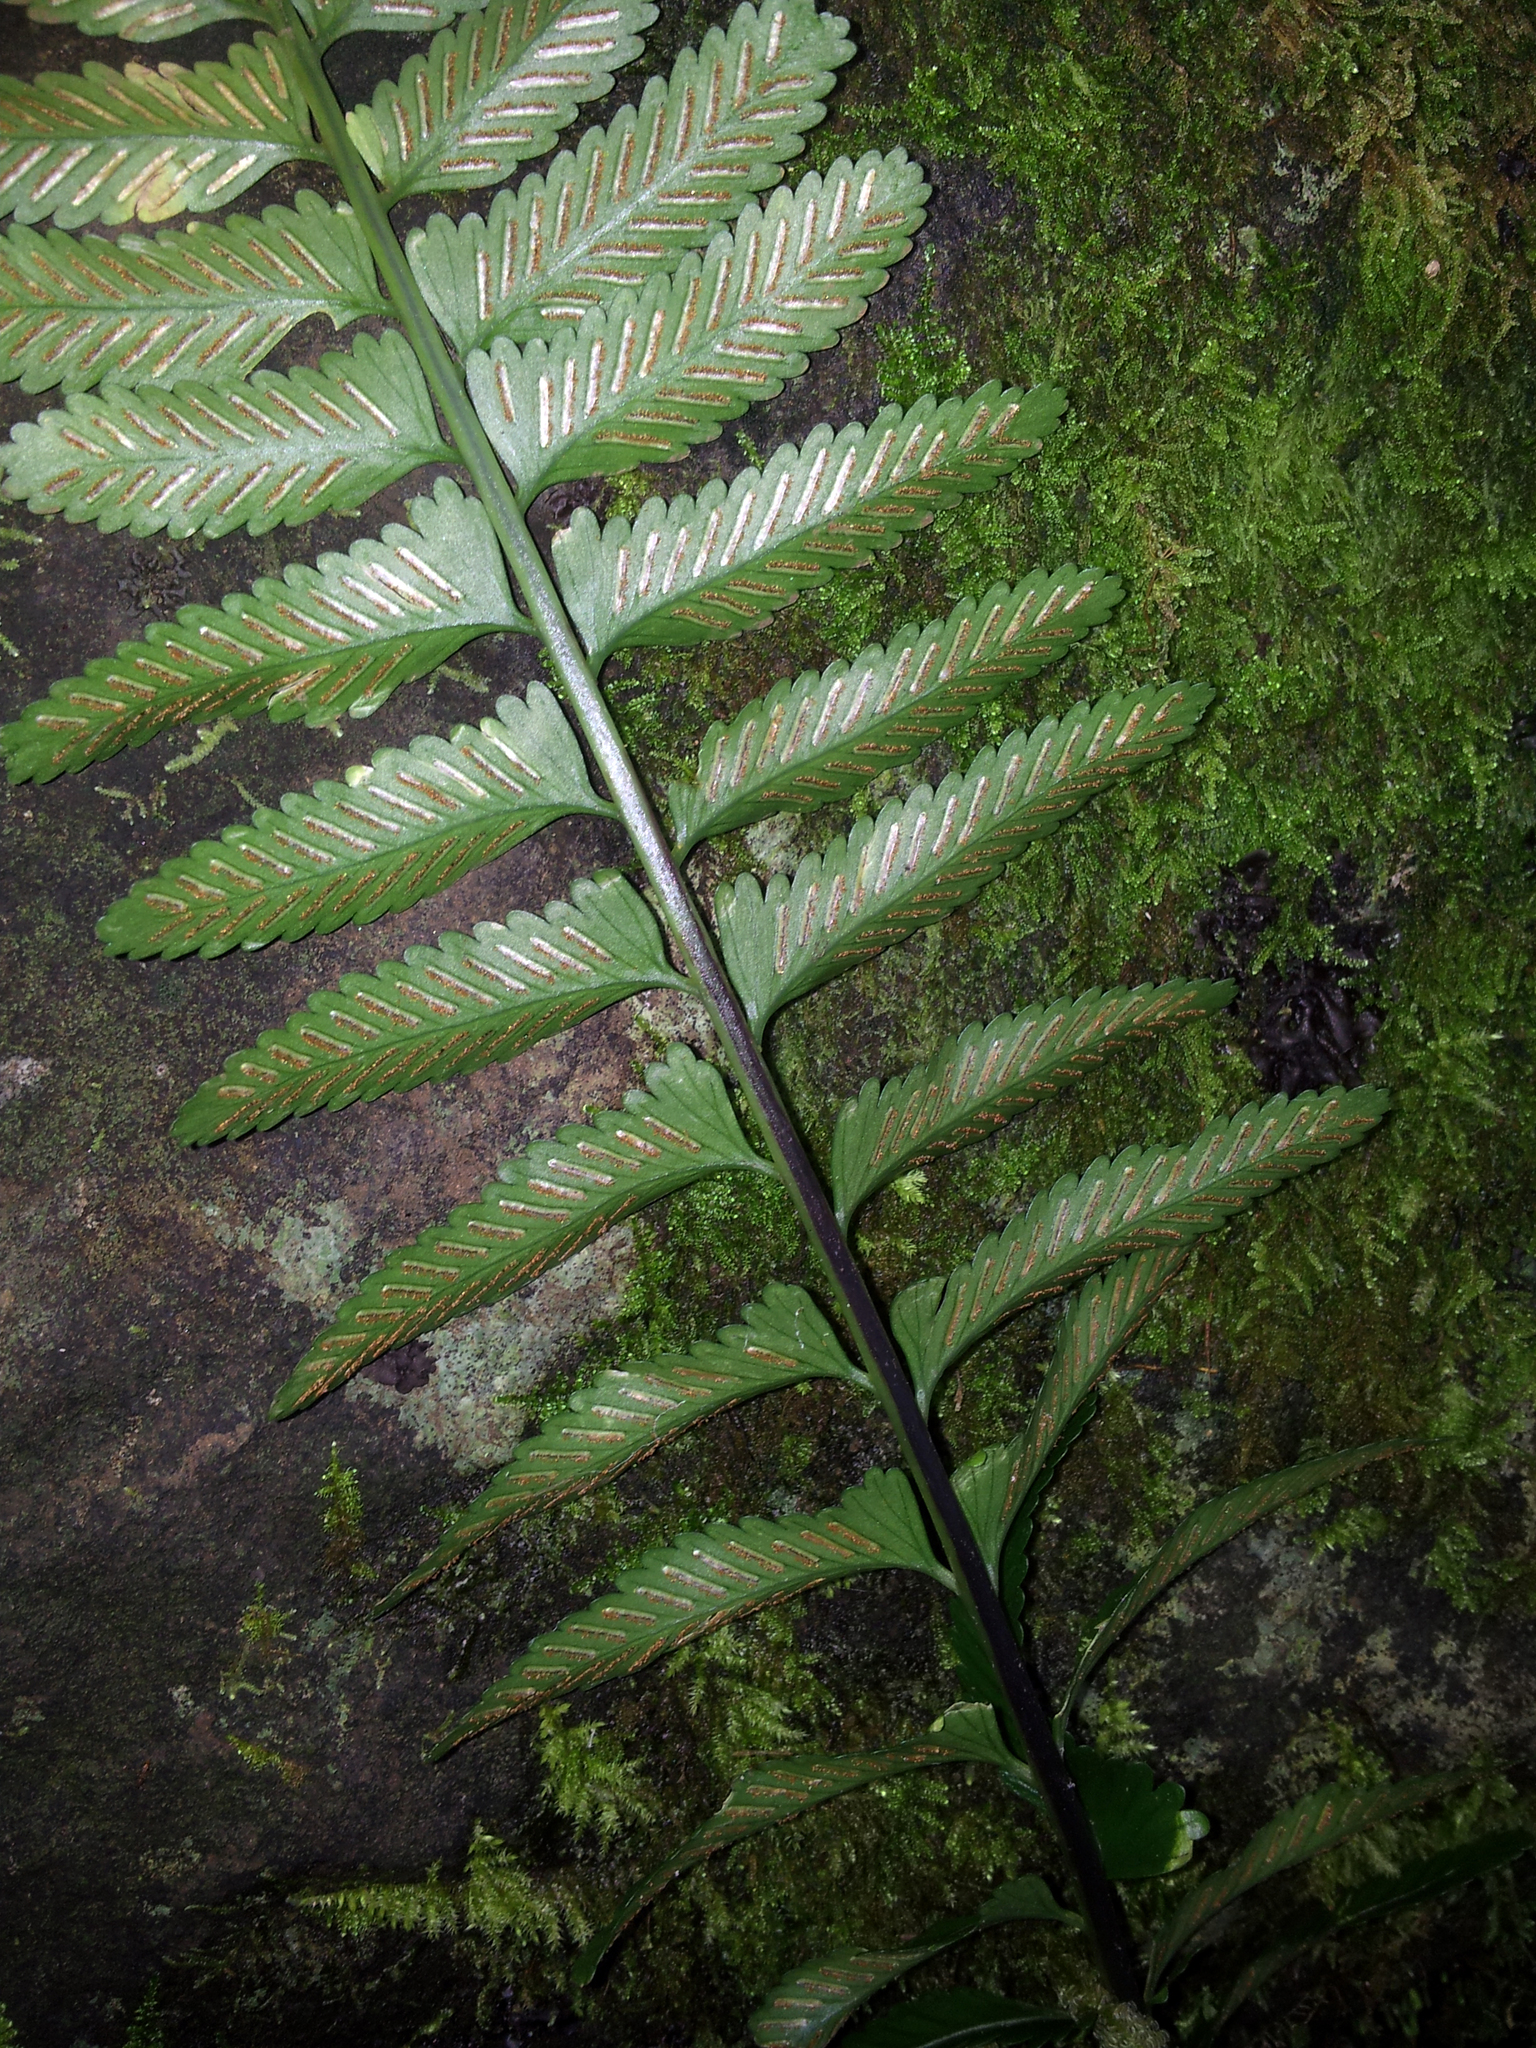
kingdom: Plantae
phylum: Tracheophyta
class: Polypodiopsida
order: Polypodiales
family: Aspleniaceae
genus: Asplenium
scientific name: Asplenium tenerum
